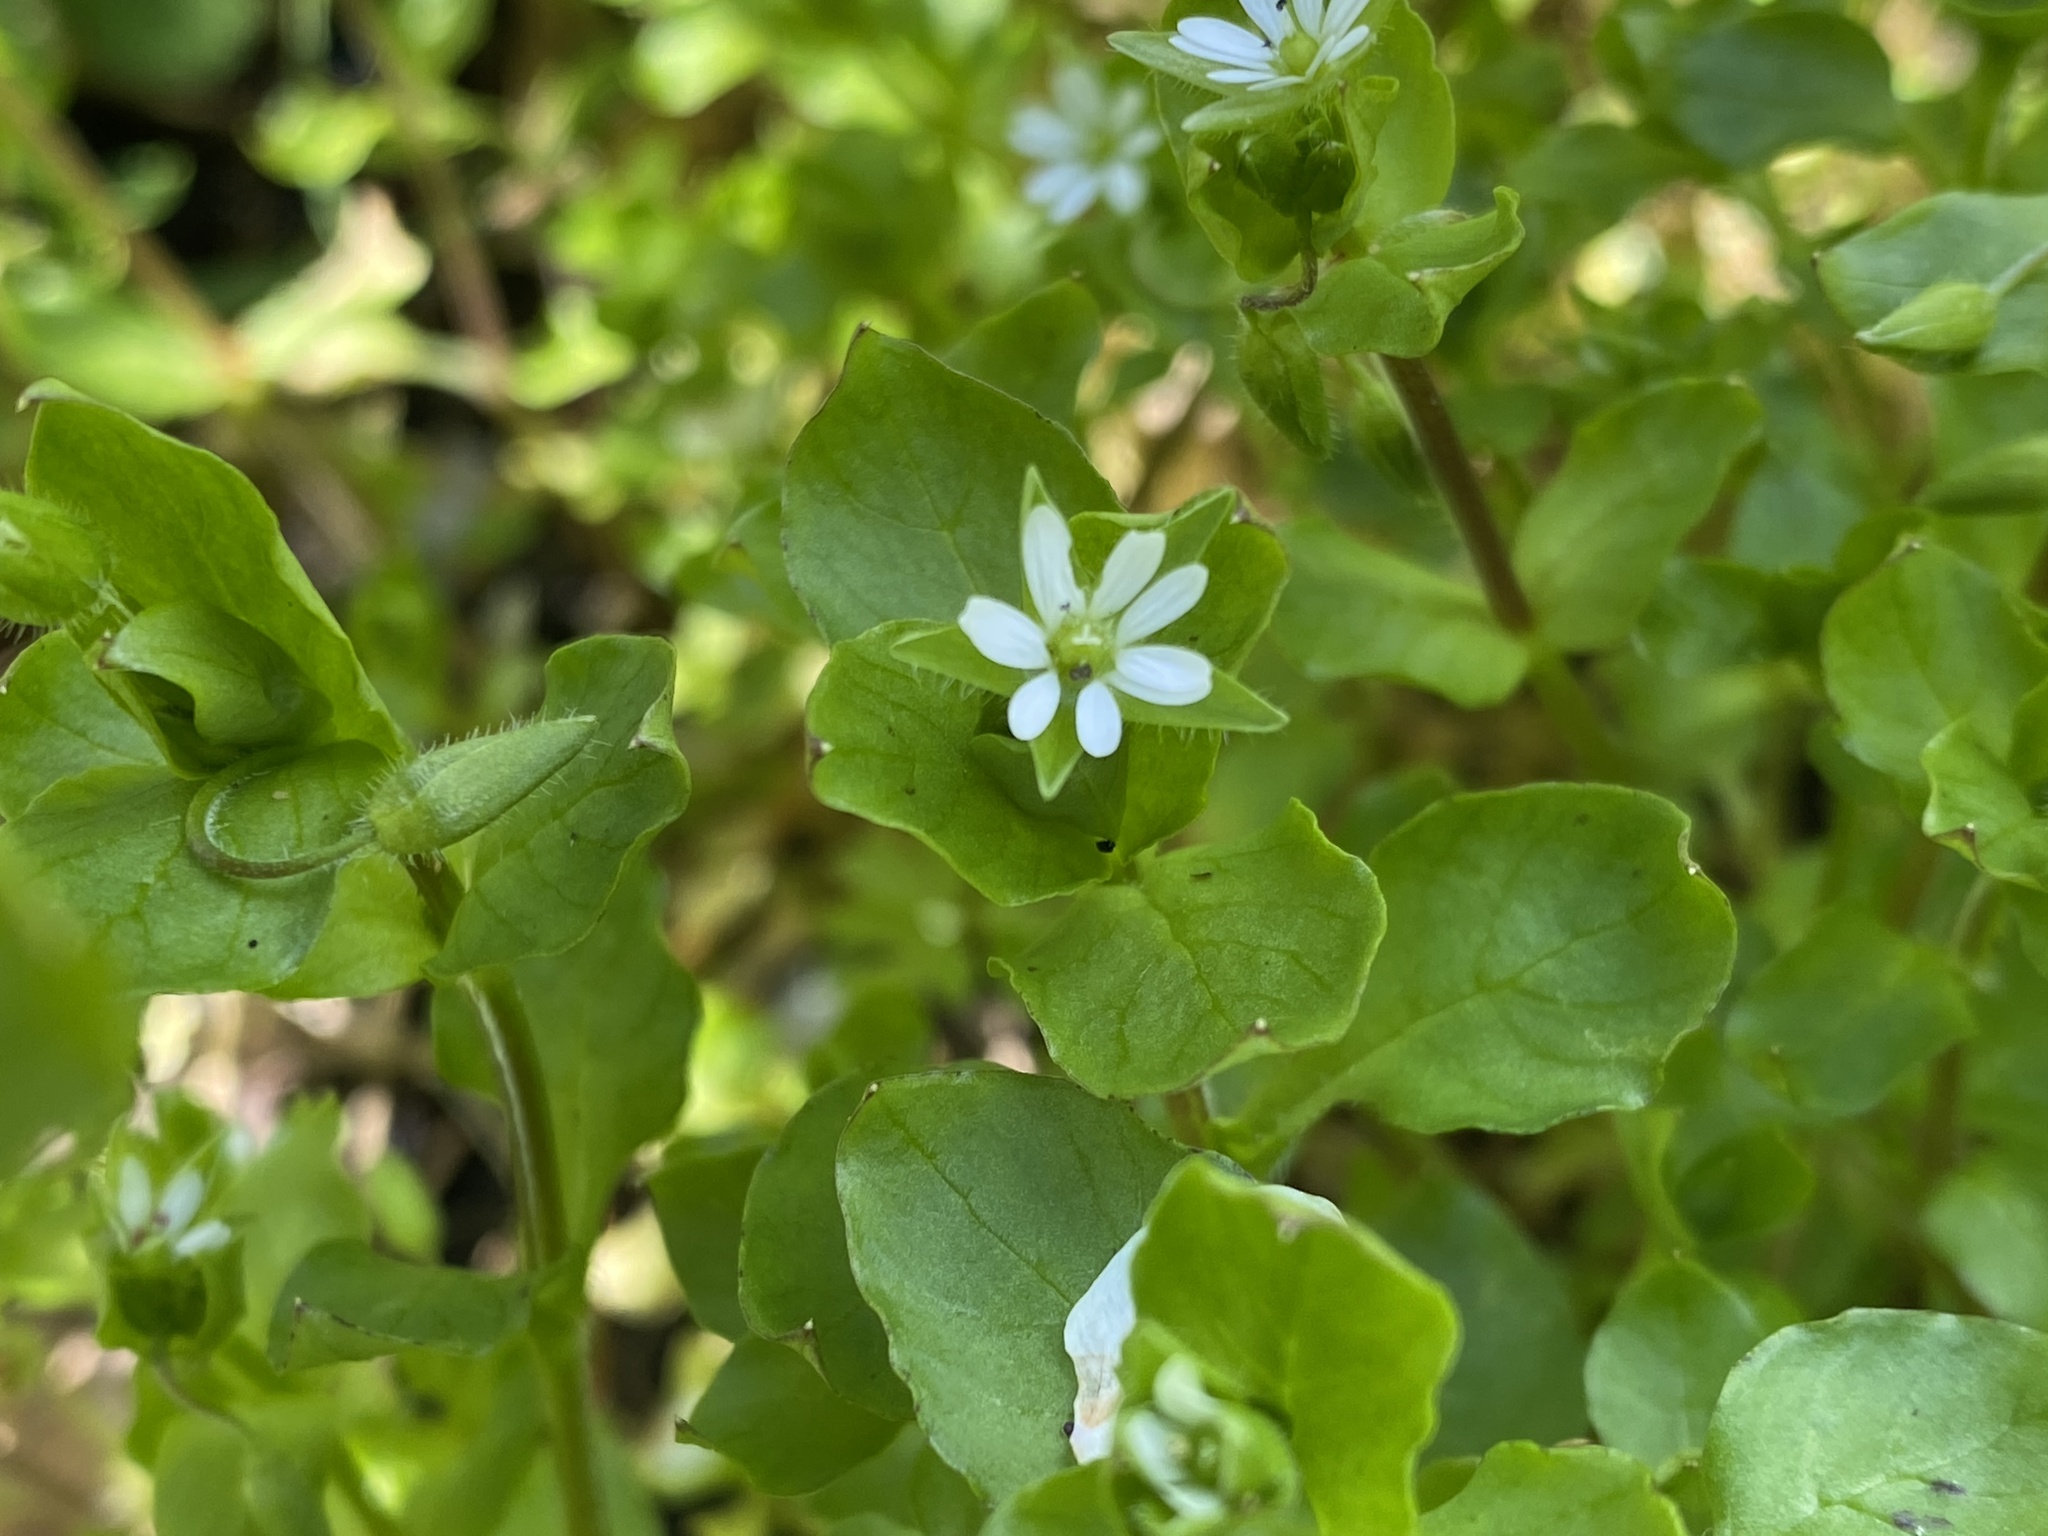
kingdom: Plantae
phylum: Tracheophyta
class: Magnoliopsida
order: Caryophyllales
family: Caryophyllaceae
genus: Stellaria
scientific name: Stellaria media
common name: Common chickweed
